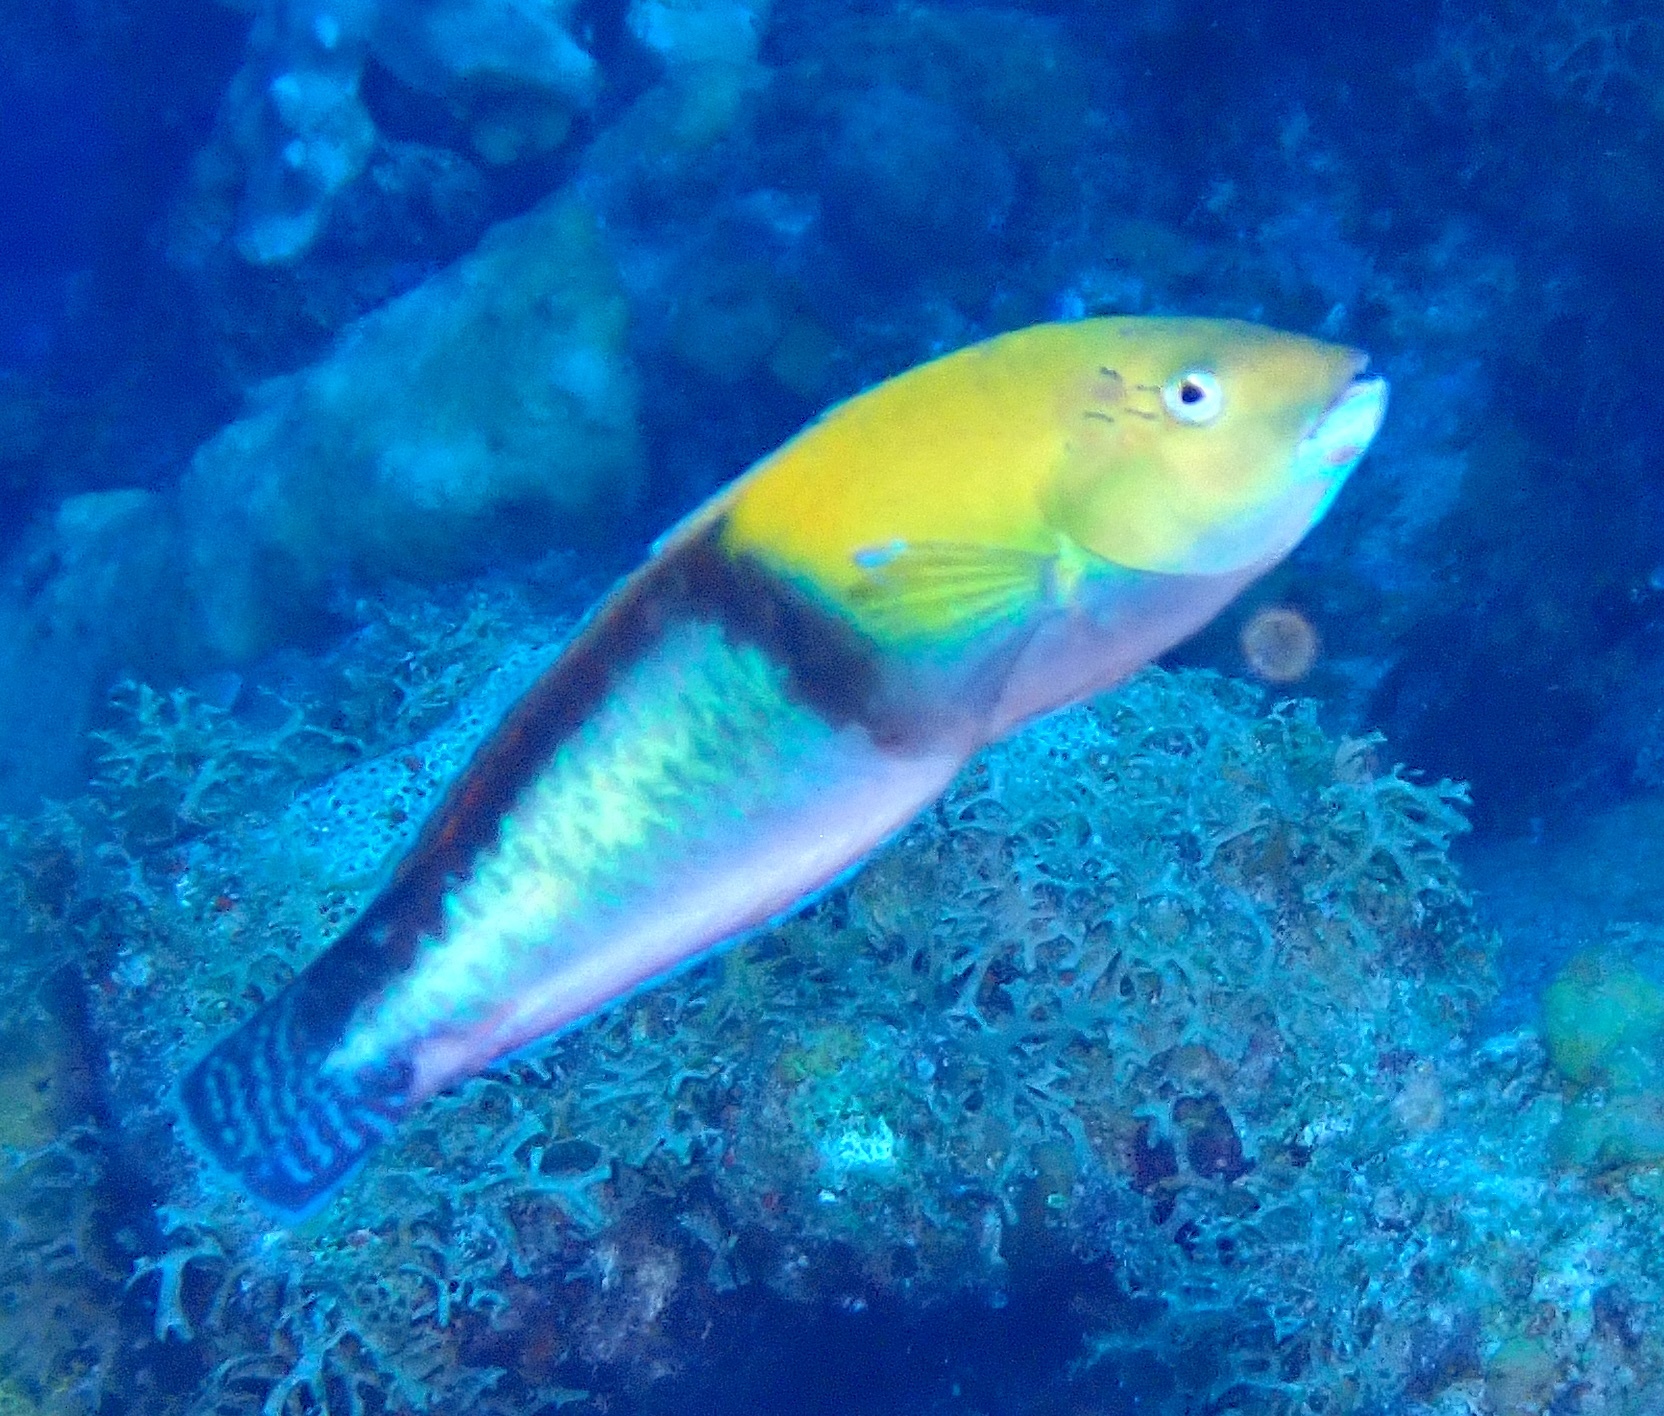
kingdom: Animalia
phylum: Chordata
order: Perciformes
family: Labridae
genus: Halichoeres
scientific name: Halichoeres garnoti
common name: Yellowhead wrasse
